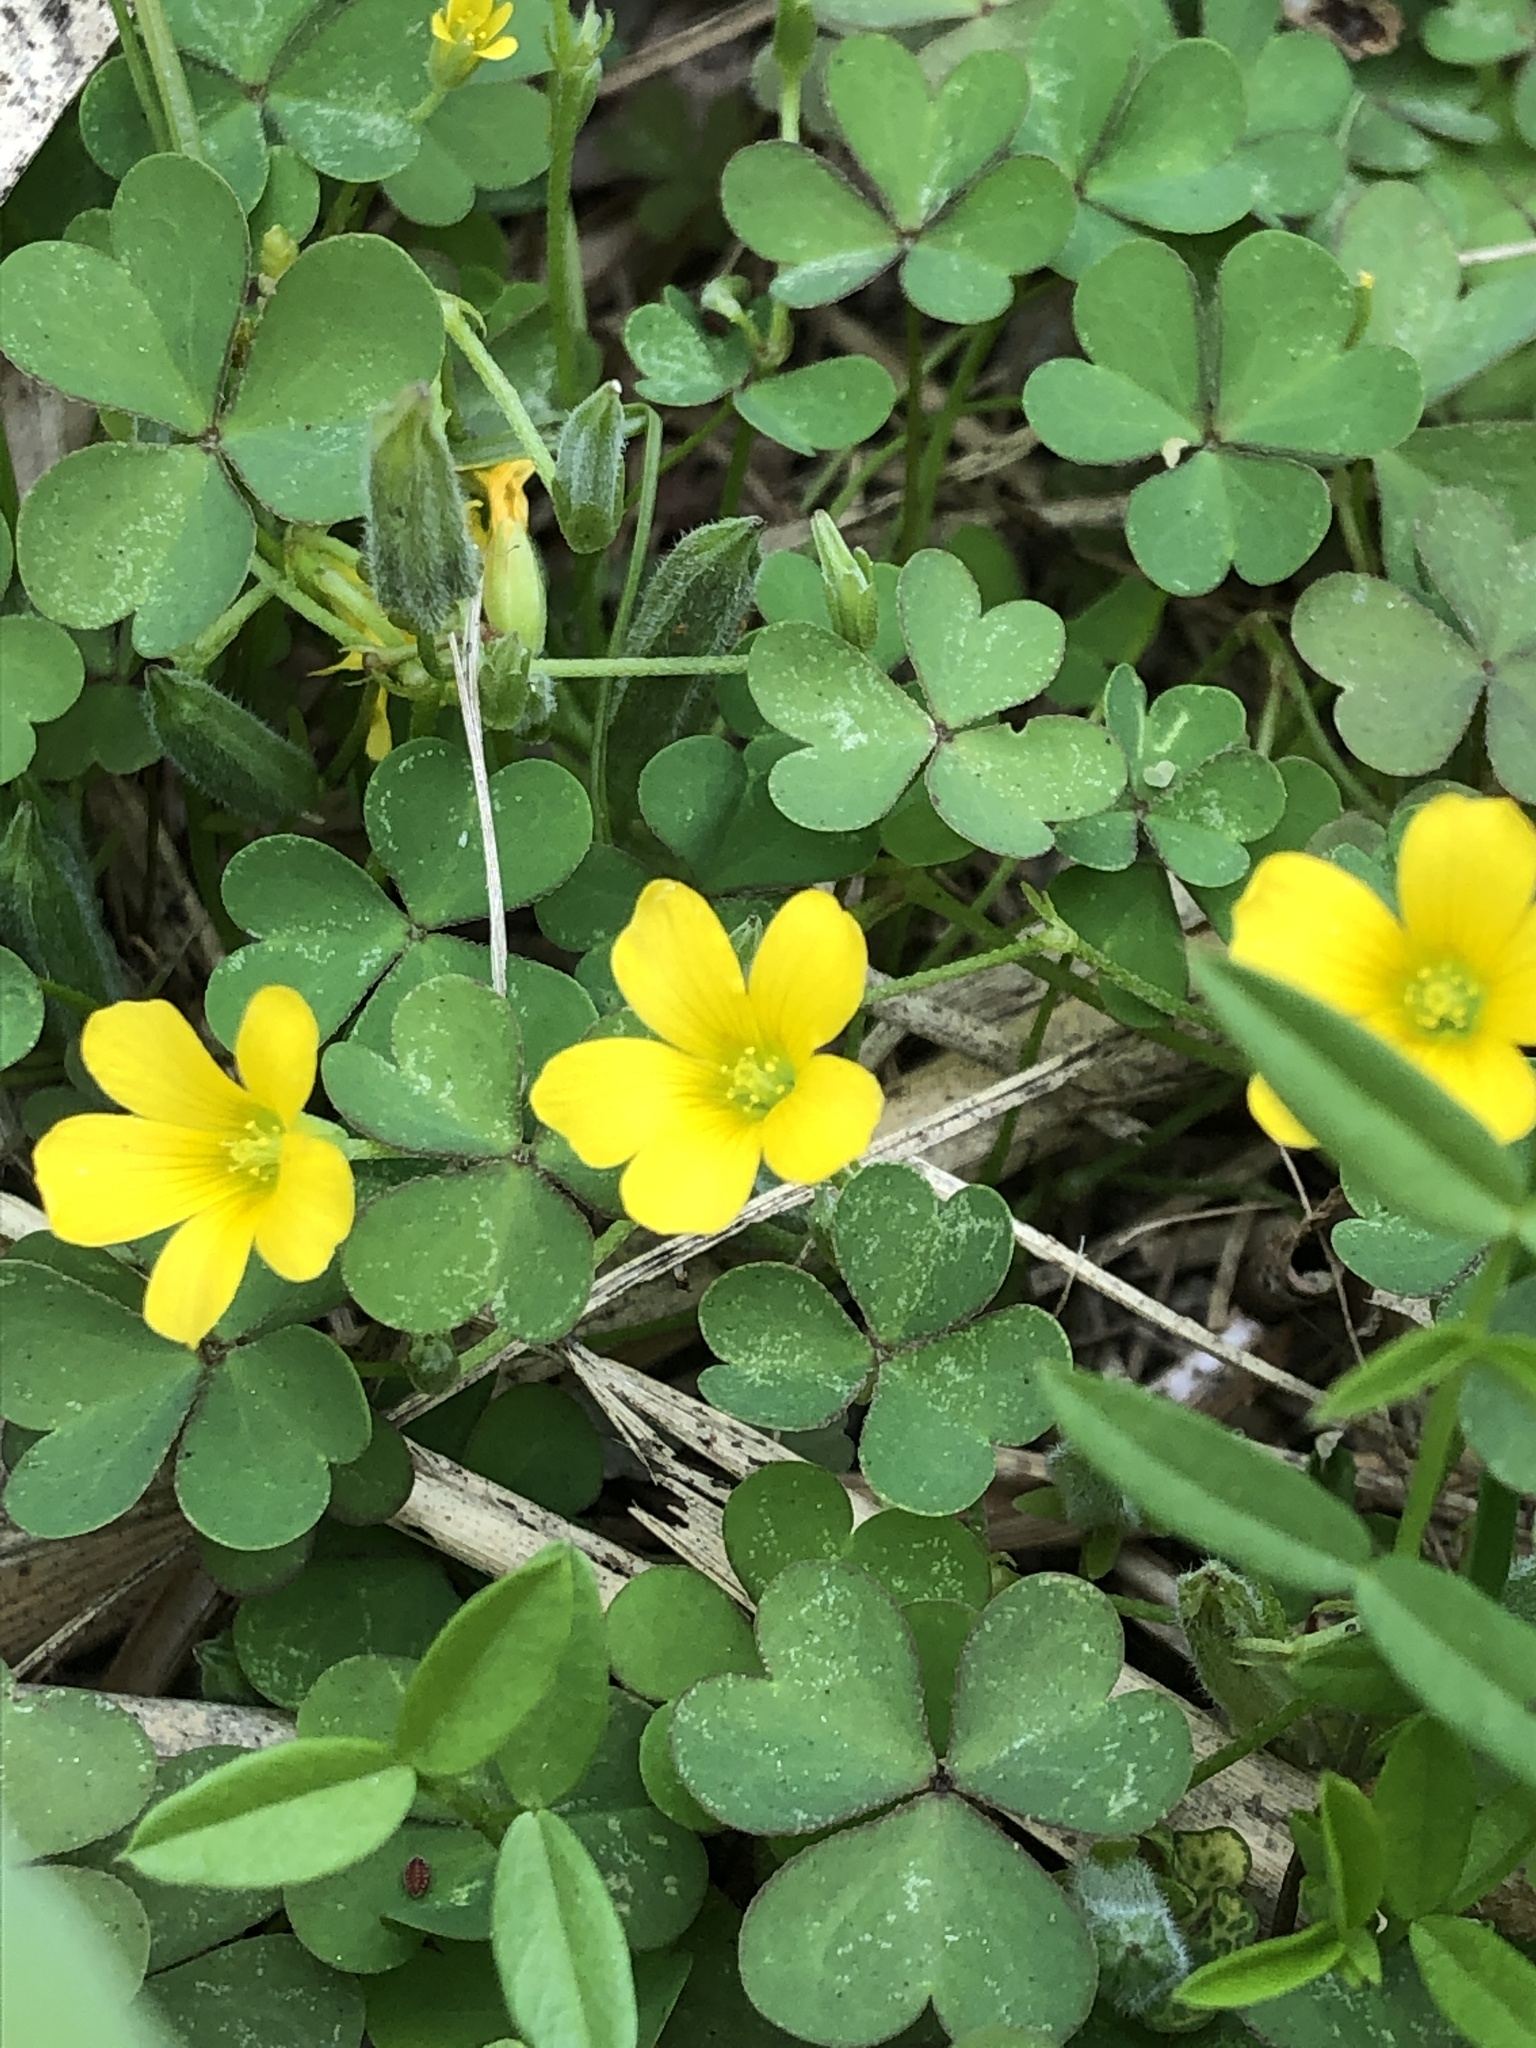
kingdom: Plantae
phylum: Tracheophyta
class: Magnoliopsida
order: Oxalidales
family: Oxalidaceae
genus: Oxalis
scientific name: Oxalis corniculata
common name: Procumbent yellow-sorrel
